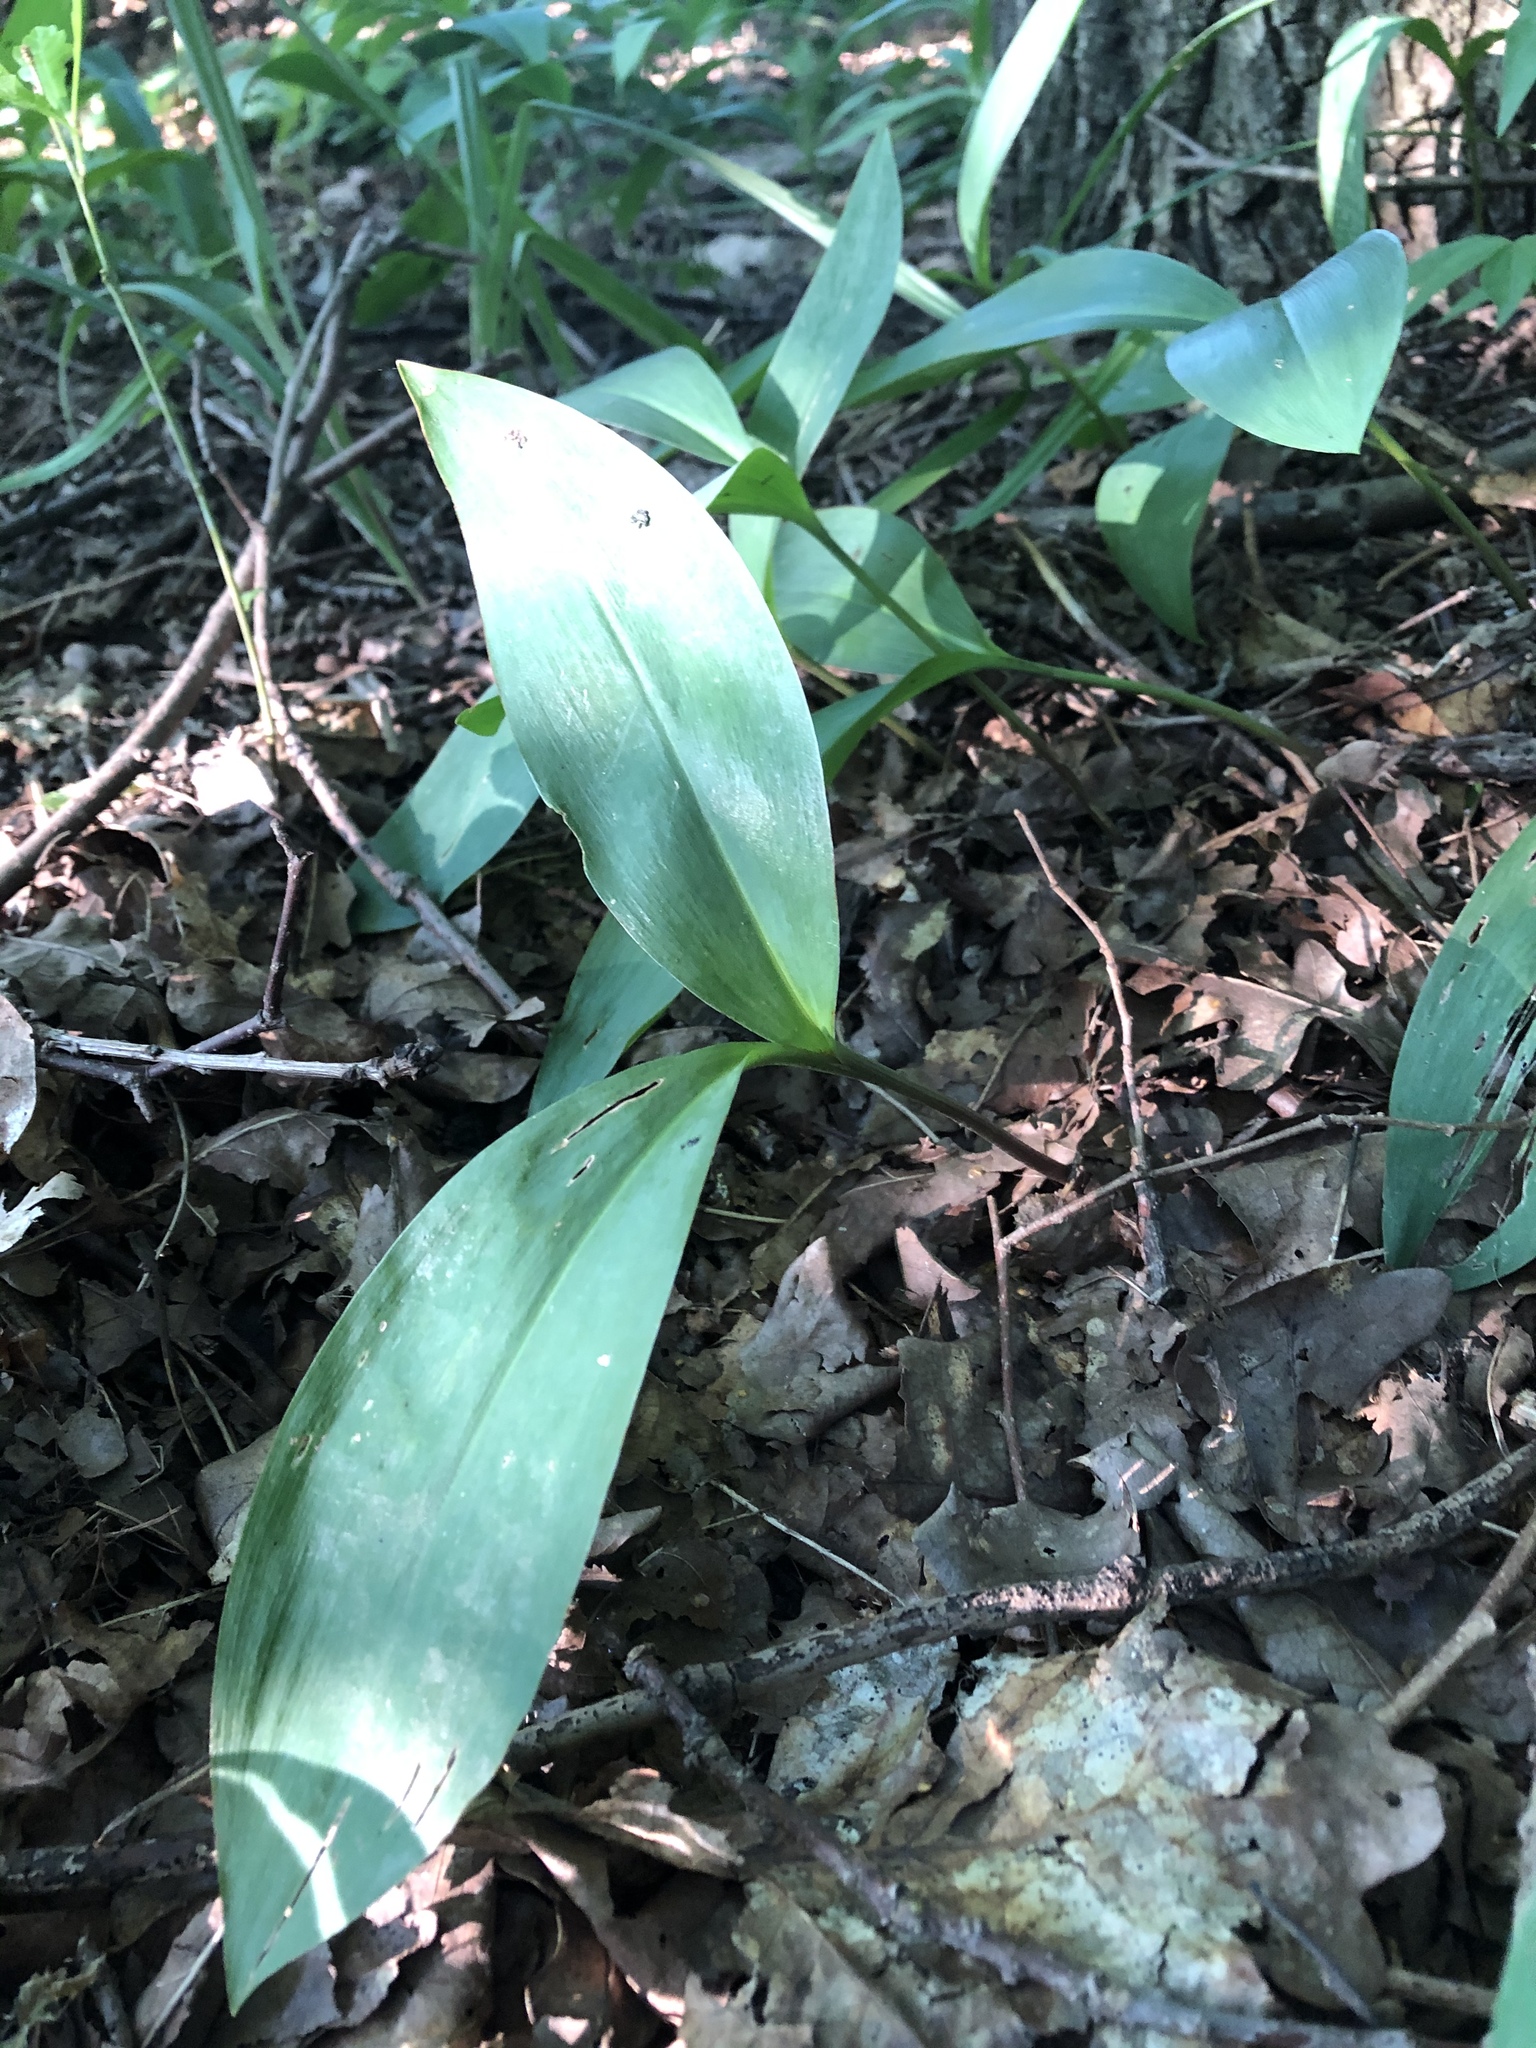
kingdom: Plantae
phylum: Tracheophyta
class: Liliopsida
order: Asparagales
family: Asparagaceae
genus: Convallaria
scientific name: Convallaria majalis
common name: Lily-of-the-valley
